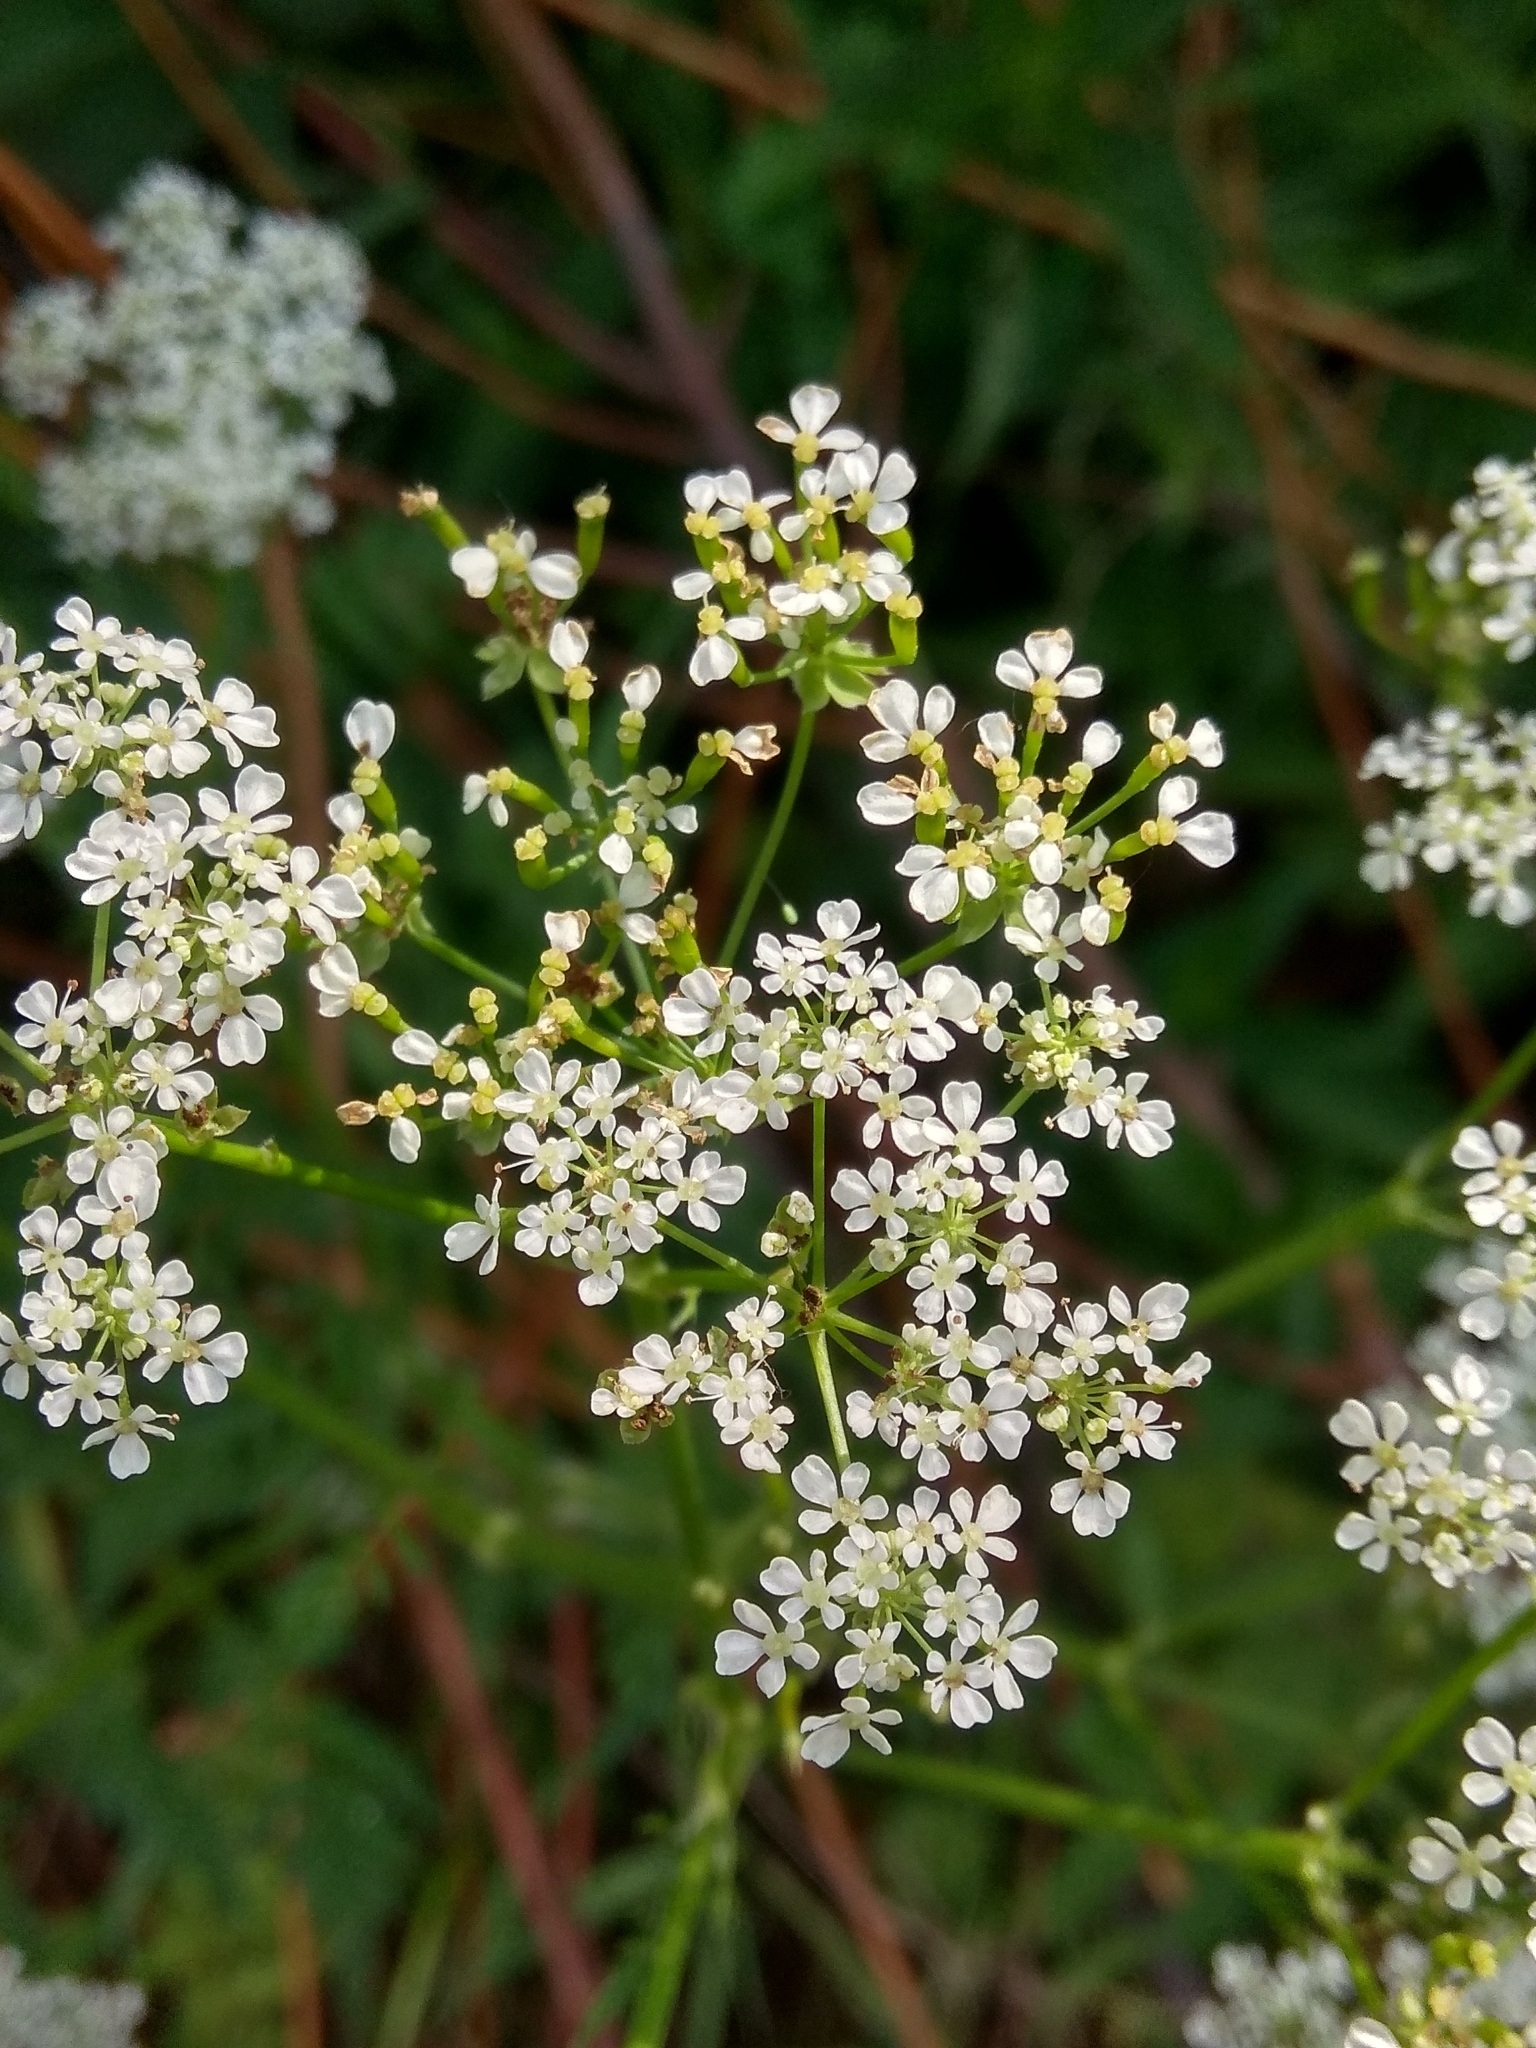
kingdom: Plantae
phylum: Tracheophyta
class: Magnoliopsida
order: Apiales
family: Apiaceae
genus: Anthriscus
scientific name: Anthriscus sylvestris
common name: Cow parsley
